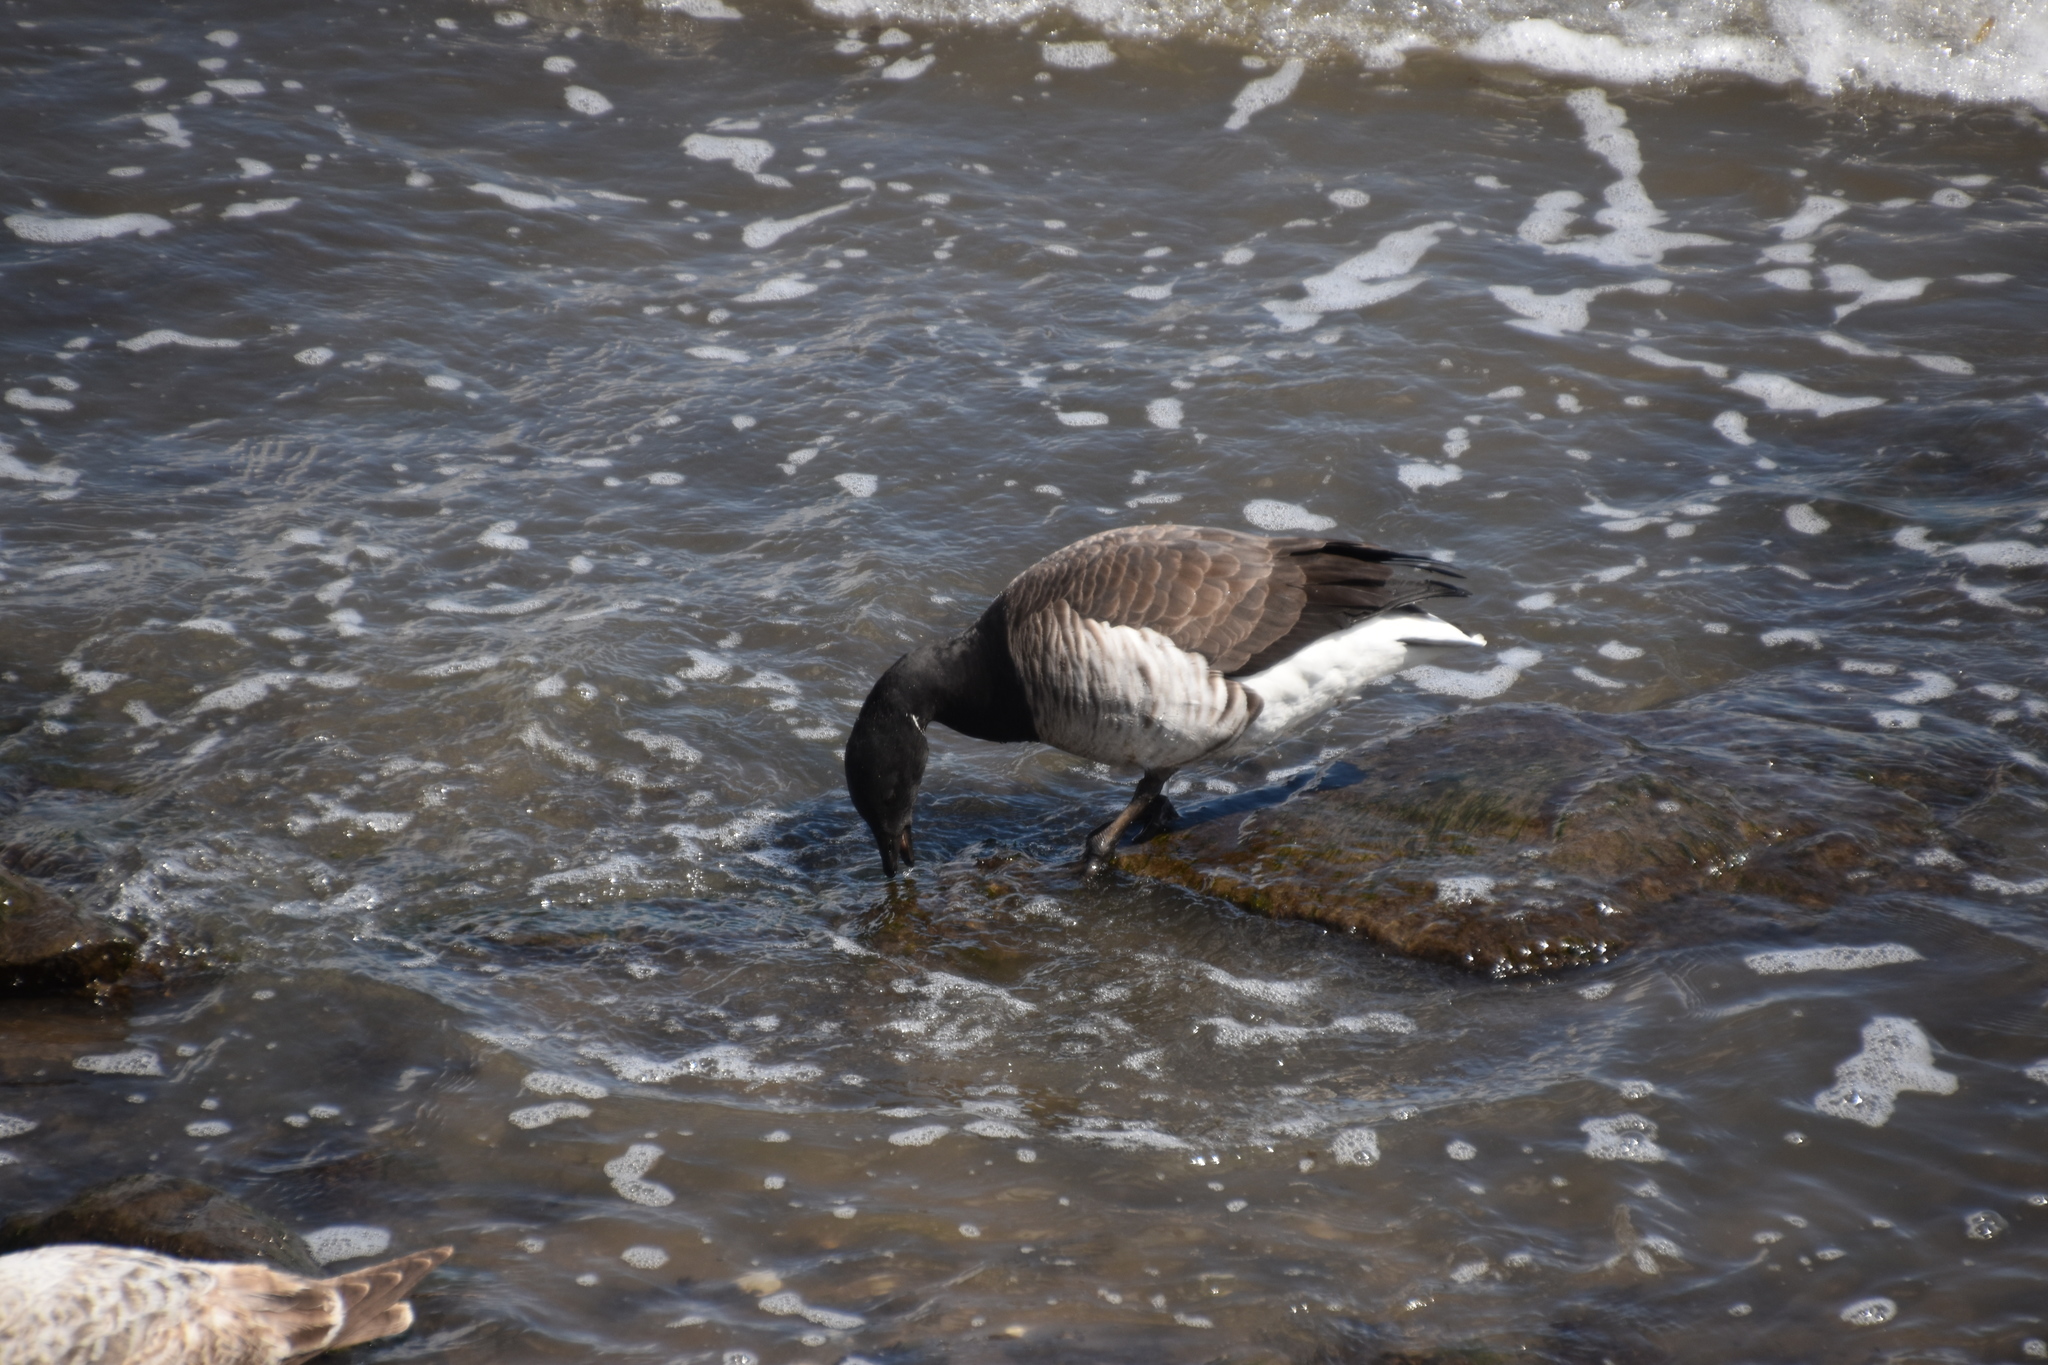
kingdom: Animalia
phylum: Chordata
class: Aves
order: Anseriformes
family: Anatidae
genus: Branta
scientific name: Branta bernicla
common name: Brant goose
